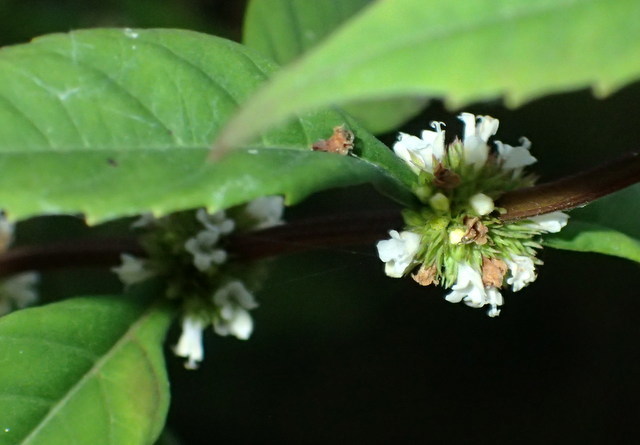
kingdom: Plantae
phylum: Tracheophyta
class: Magnoliopsida
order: Lamiales
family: Lamiaceae
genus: Lycopus
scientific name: Lycopus uniflorus
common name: Northern bugleweed
